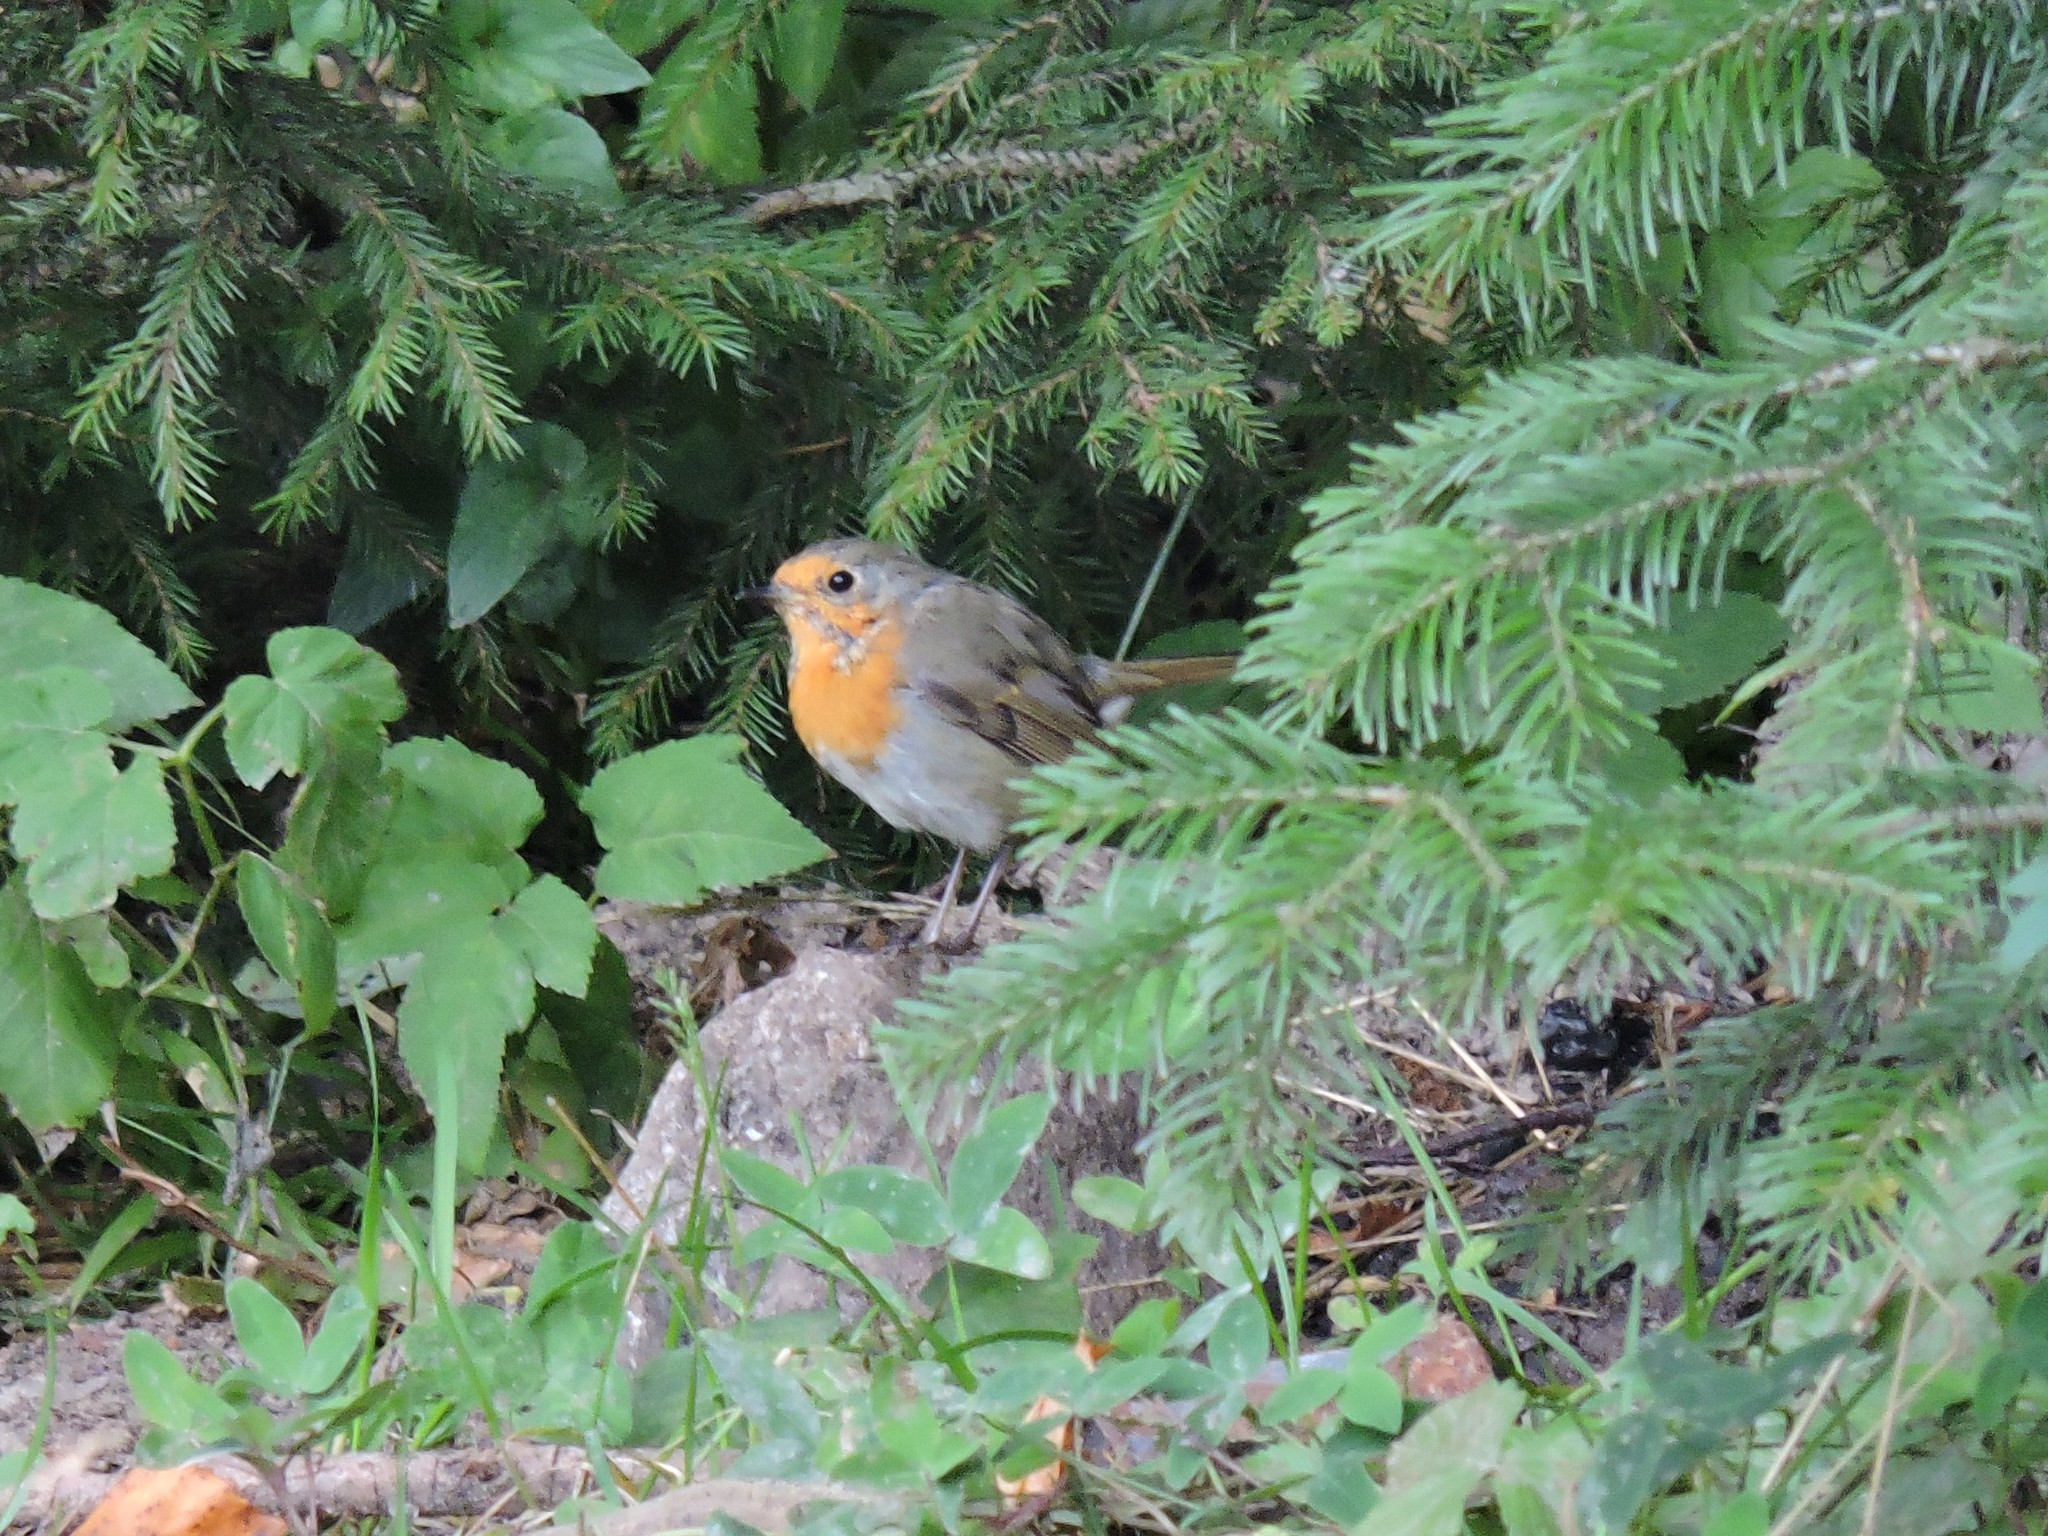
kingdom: Animalia
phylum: Chordata
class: Aves
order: Passeriformes
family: Muscicapidae
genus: Erithacus
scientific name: Erithacus rubecula
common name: European robin
